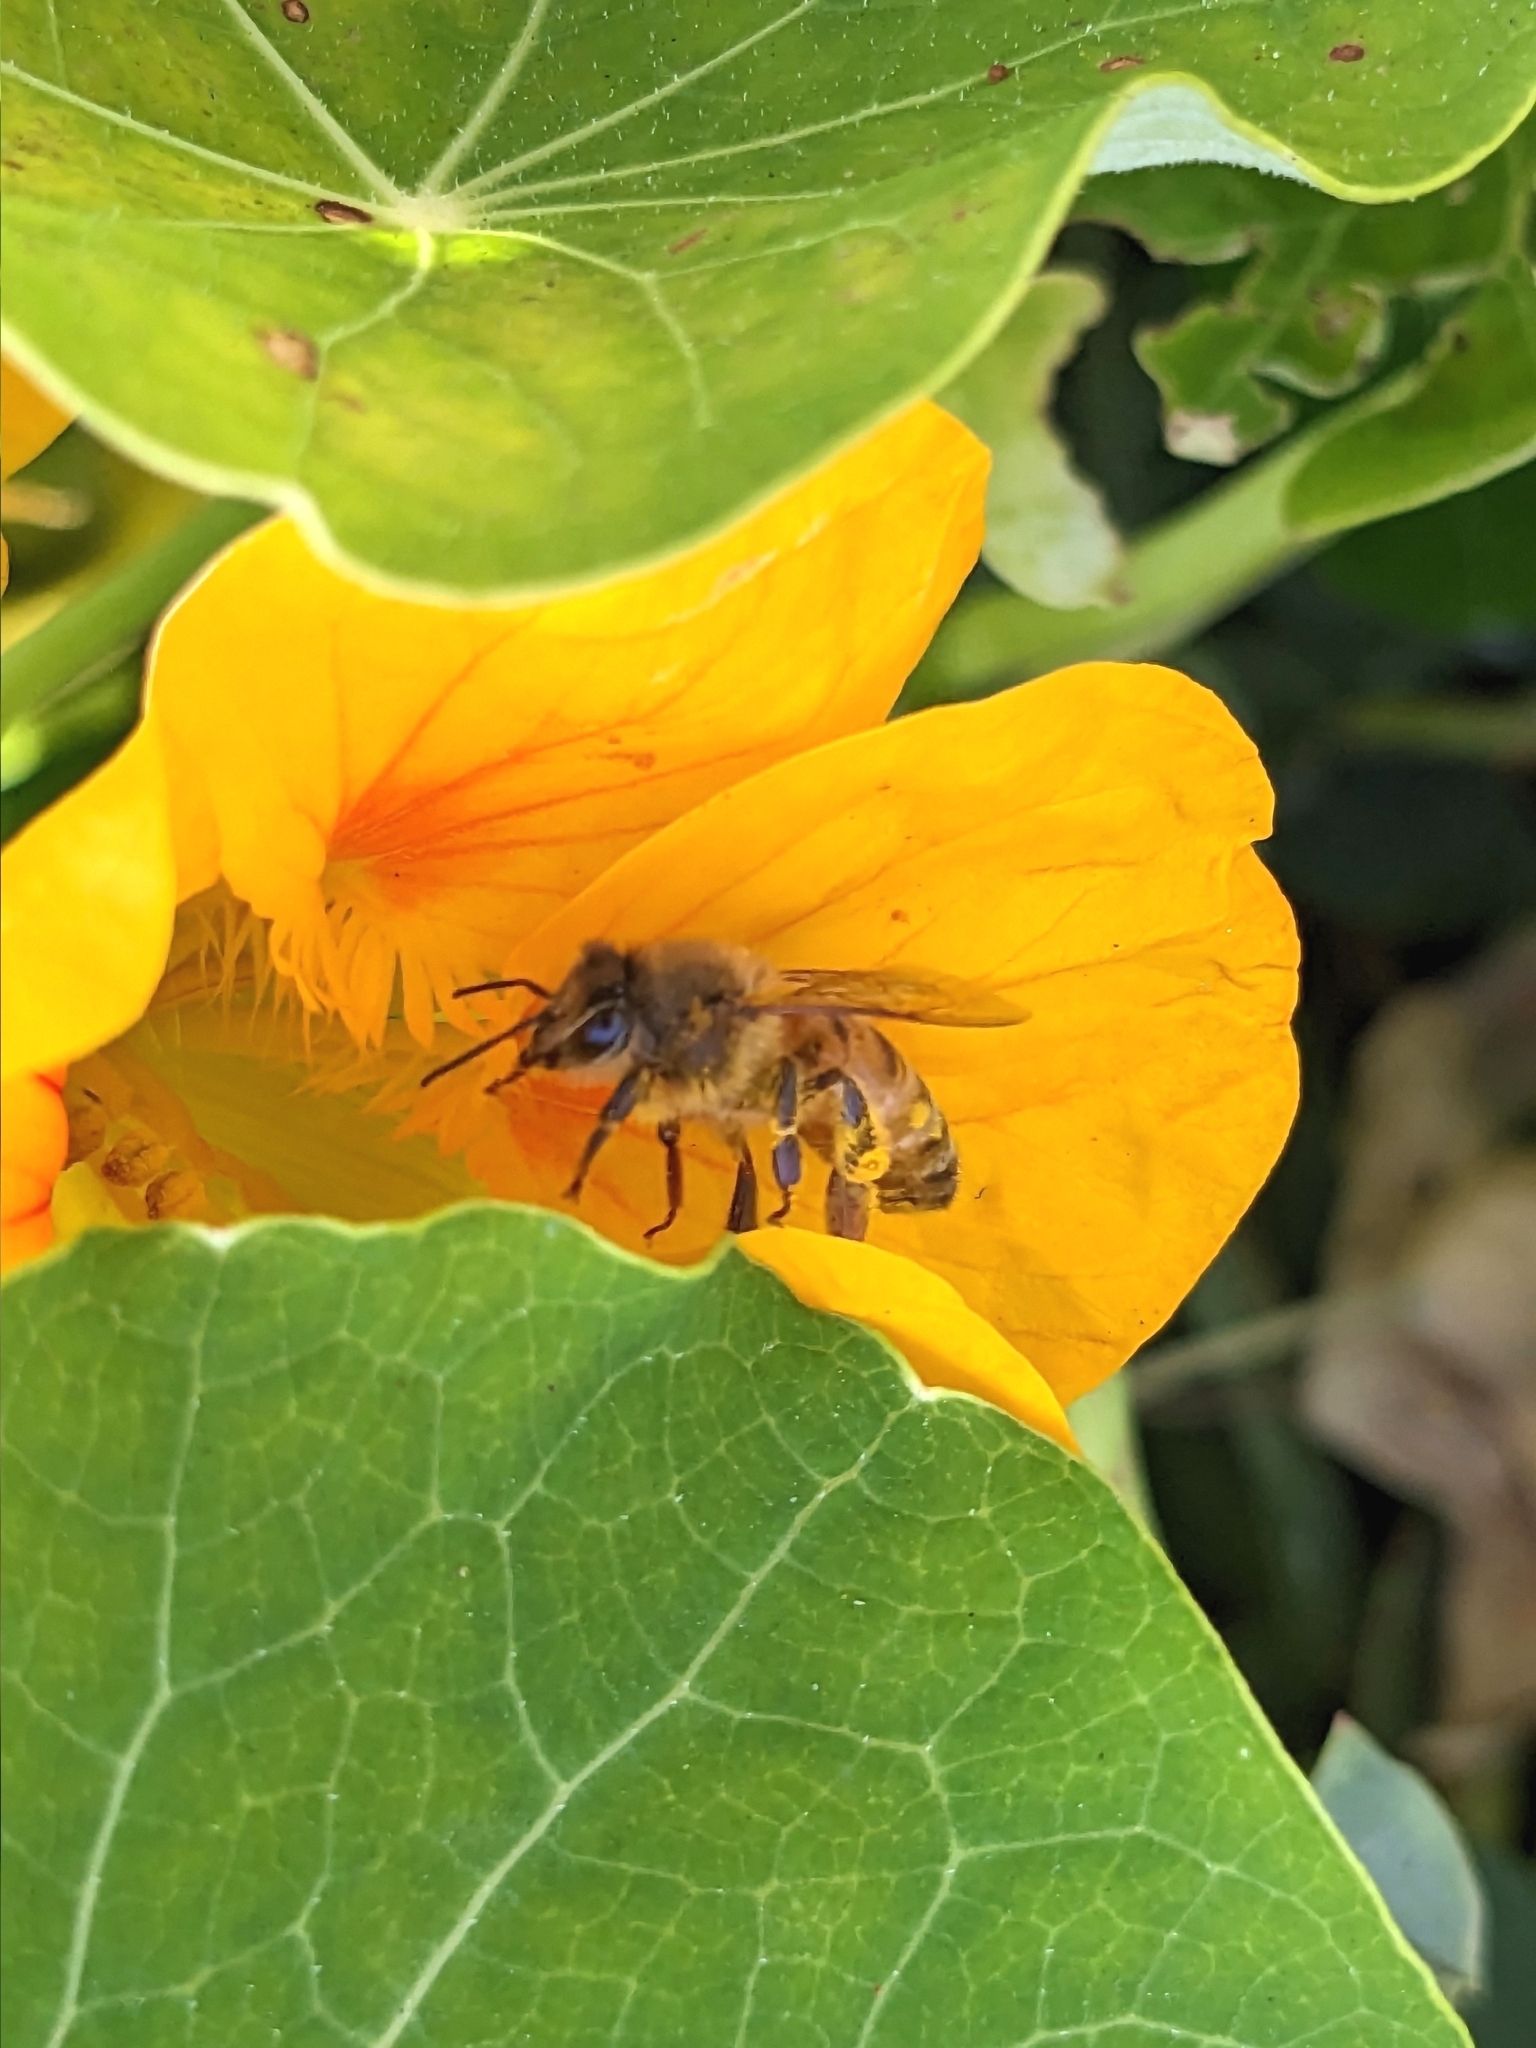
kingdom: Animalia
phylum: Arthropoda
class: Insecta
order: Hymenoptera
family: Apidae
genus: Apis
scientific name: Apis mellifera
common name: Honey bee
